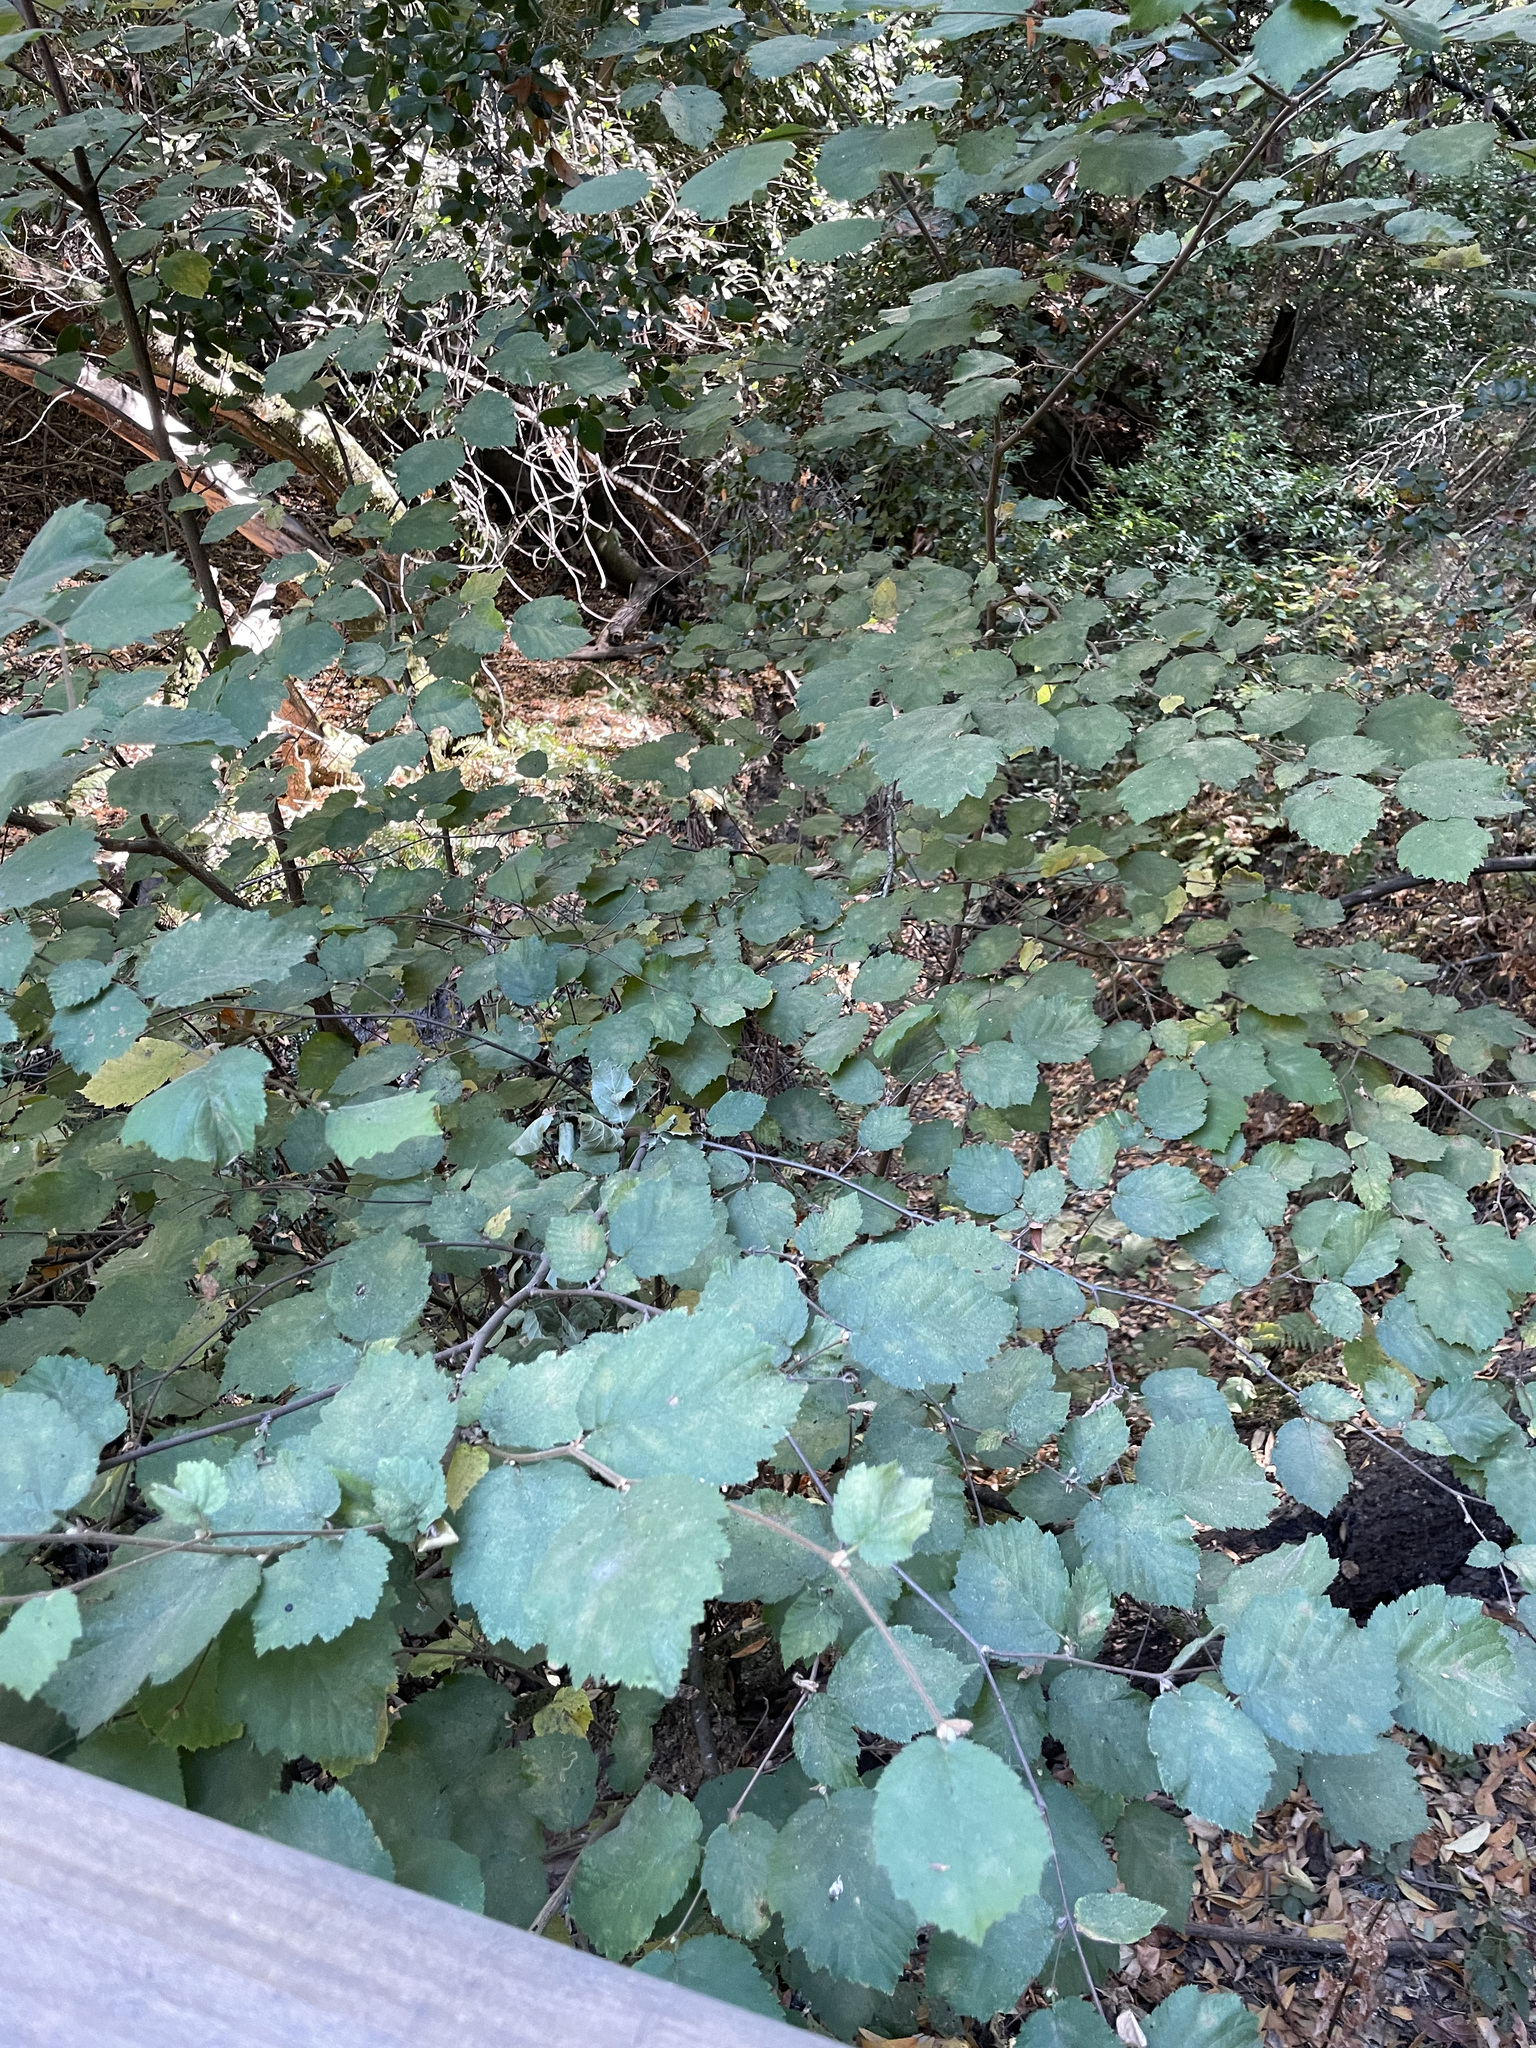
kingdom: Plantae
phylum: Tracheophyta
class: Magnoliopsida
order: Fagales
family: Betulaceae
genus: Corylus
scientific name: Corylus cornuta
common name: Beaked hazel
